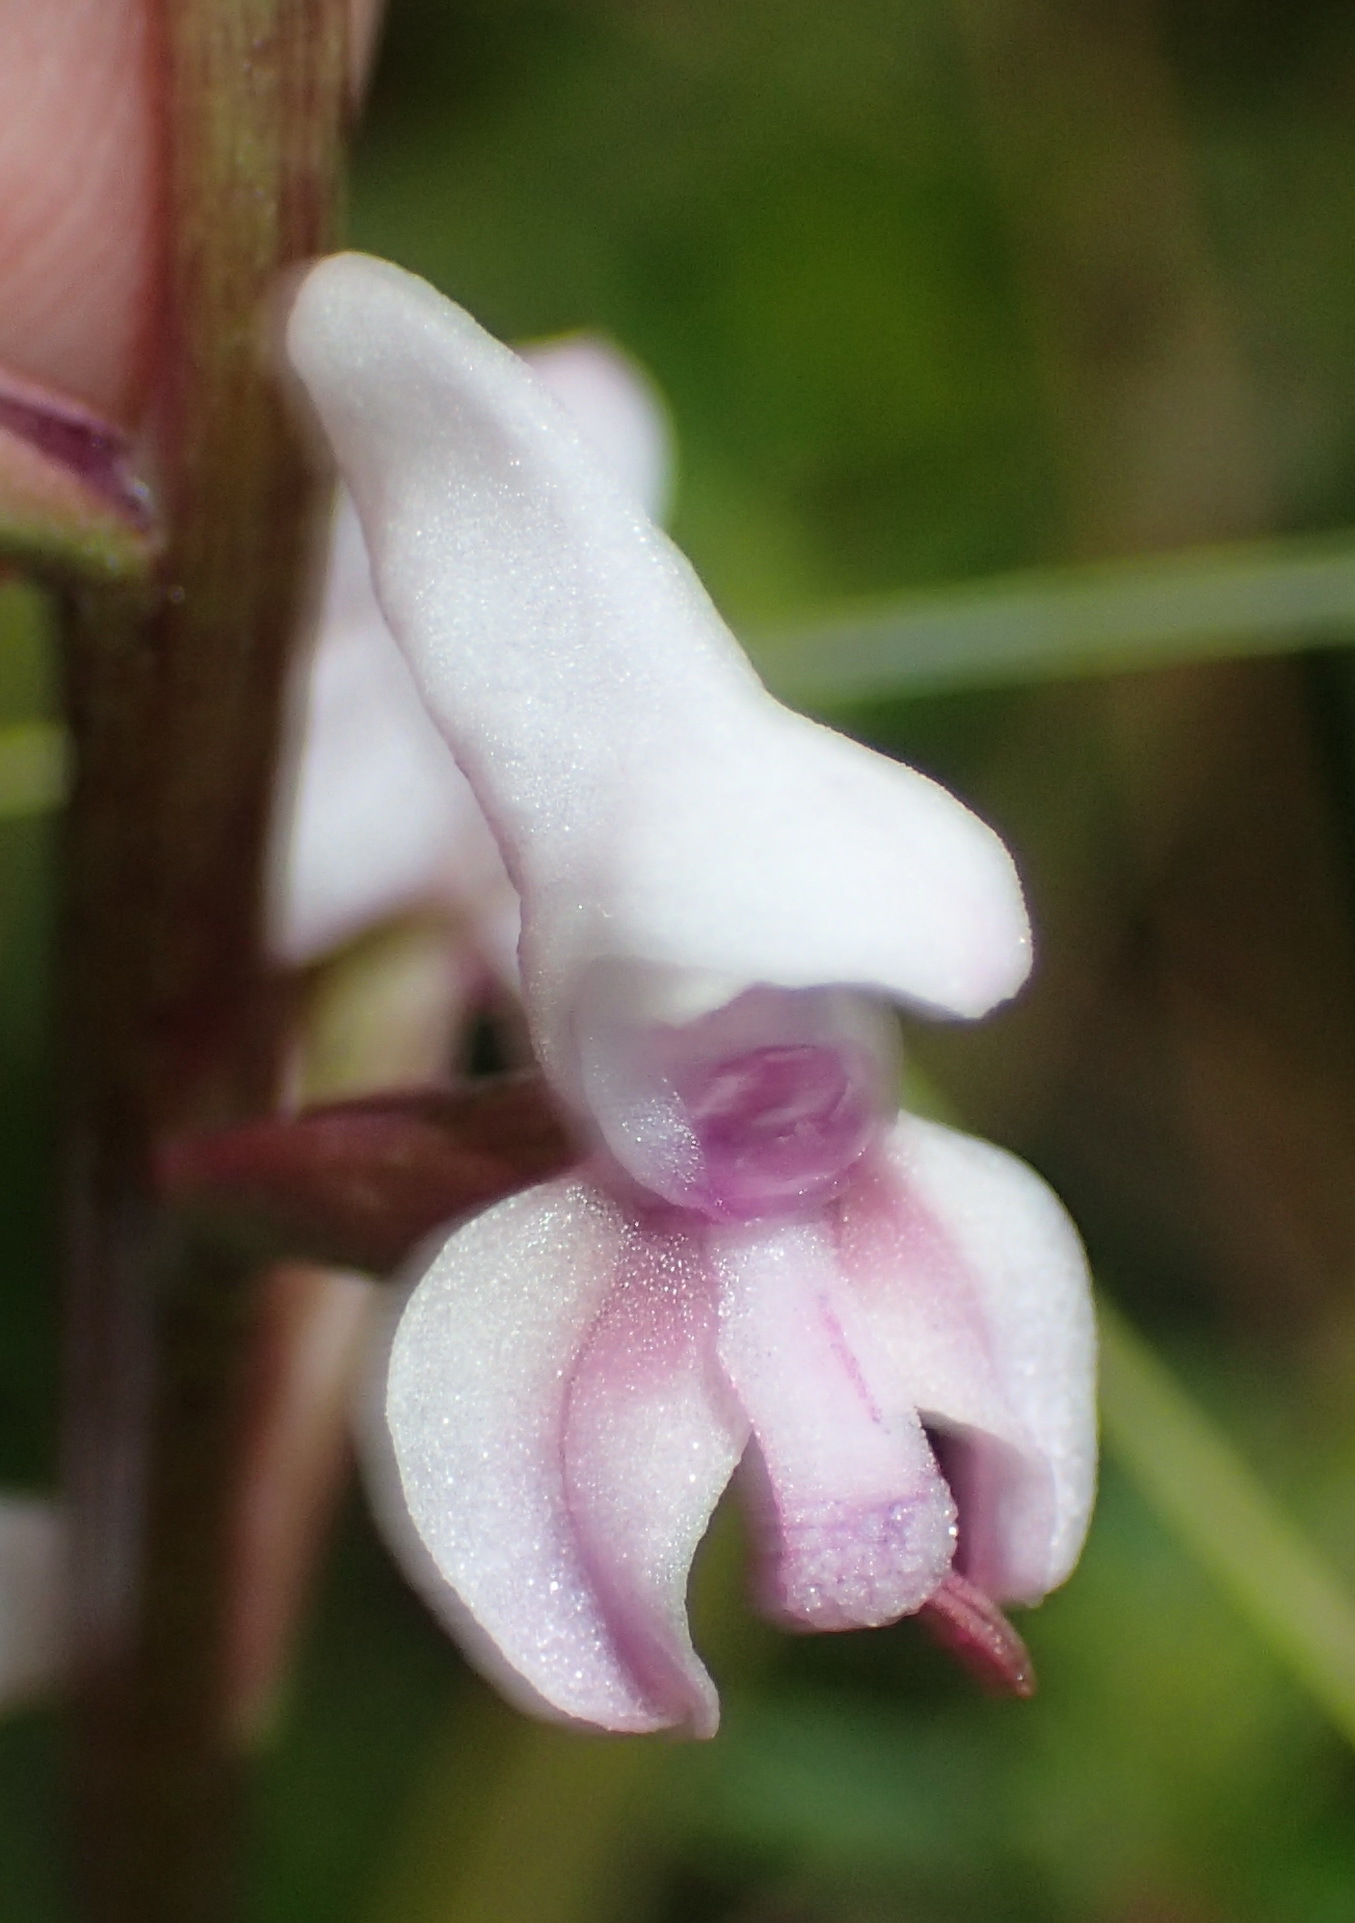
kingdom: Plantae
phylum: Tracheophyta
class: Liliopsida
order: Asparagales
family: Orchidaceae
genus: Disa
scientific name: Disa aconitoides
